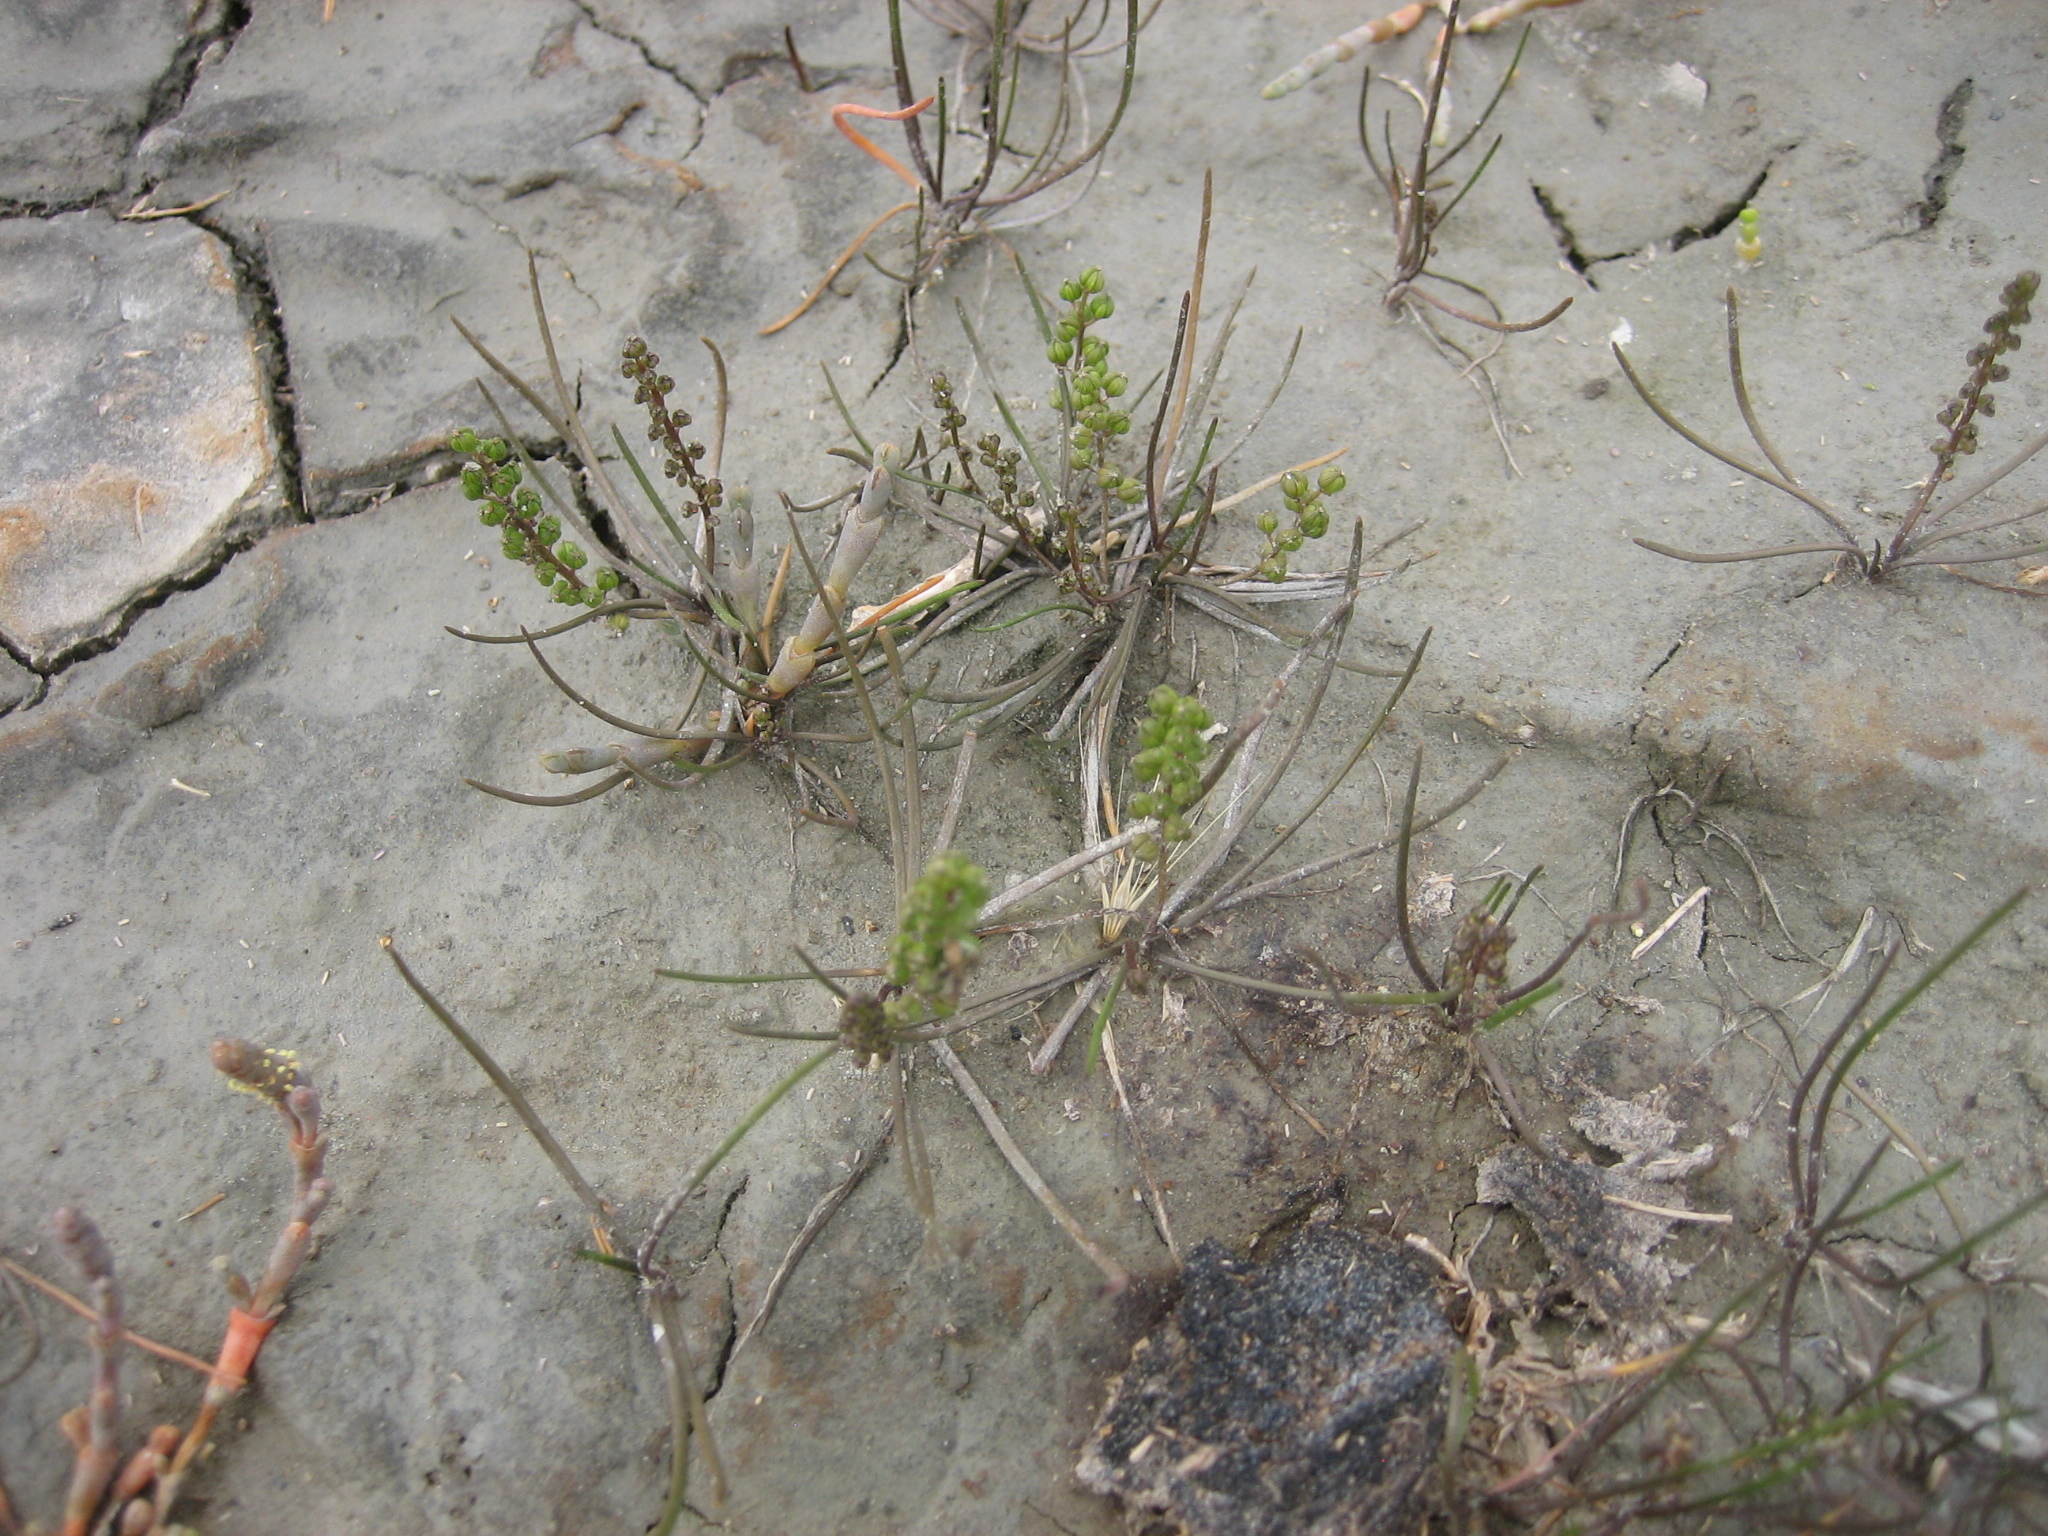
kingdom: Plantae
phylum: Tracheophyta
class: Liliopsida
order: Alismatales
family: Juncaginaceae
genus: Triglochin
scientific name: Triglochin striata
